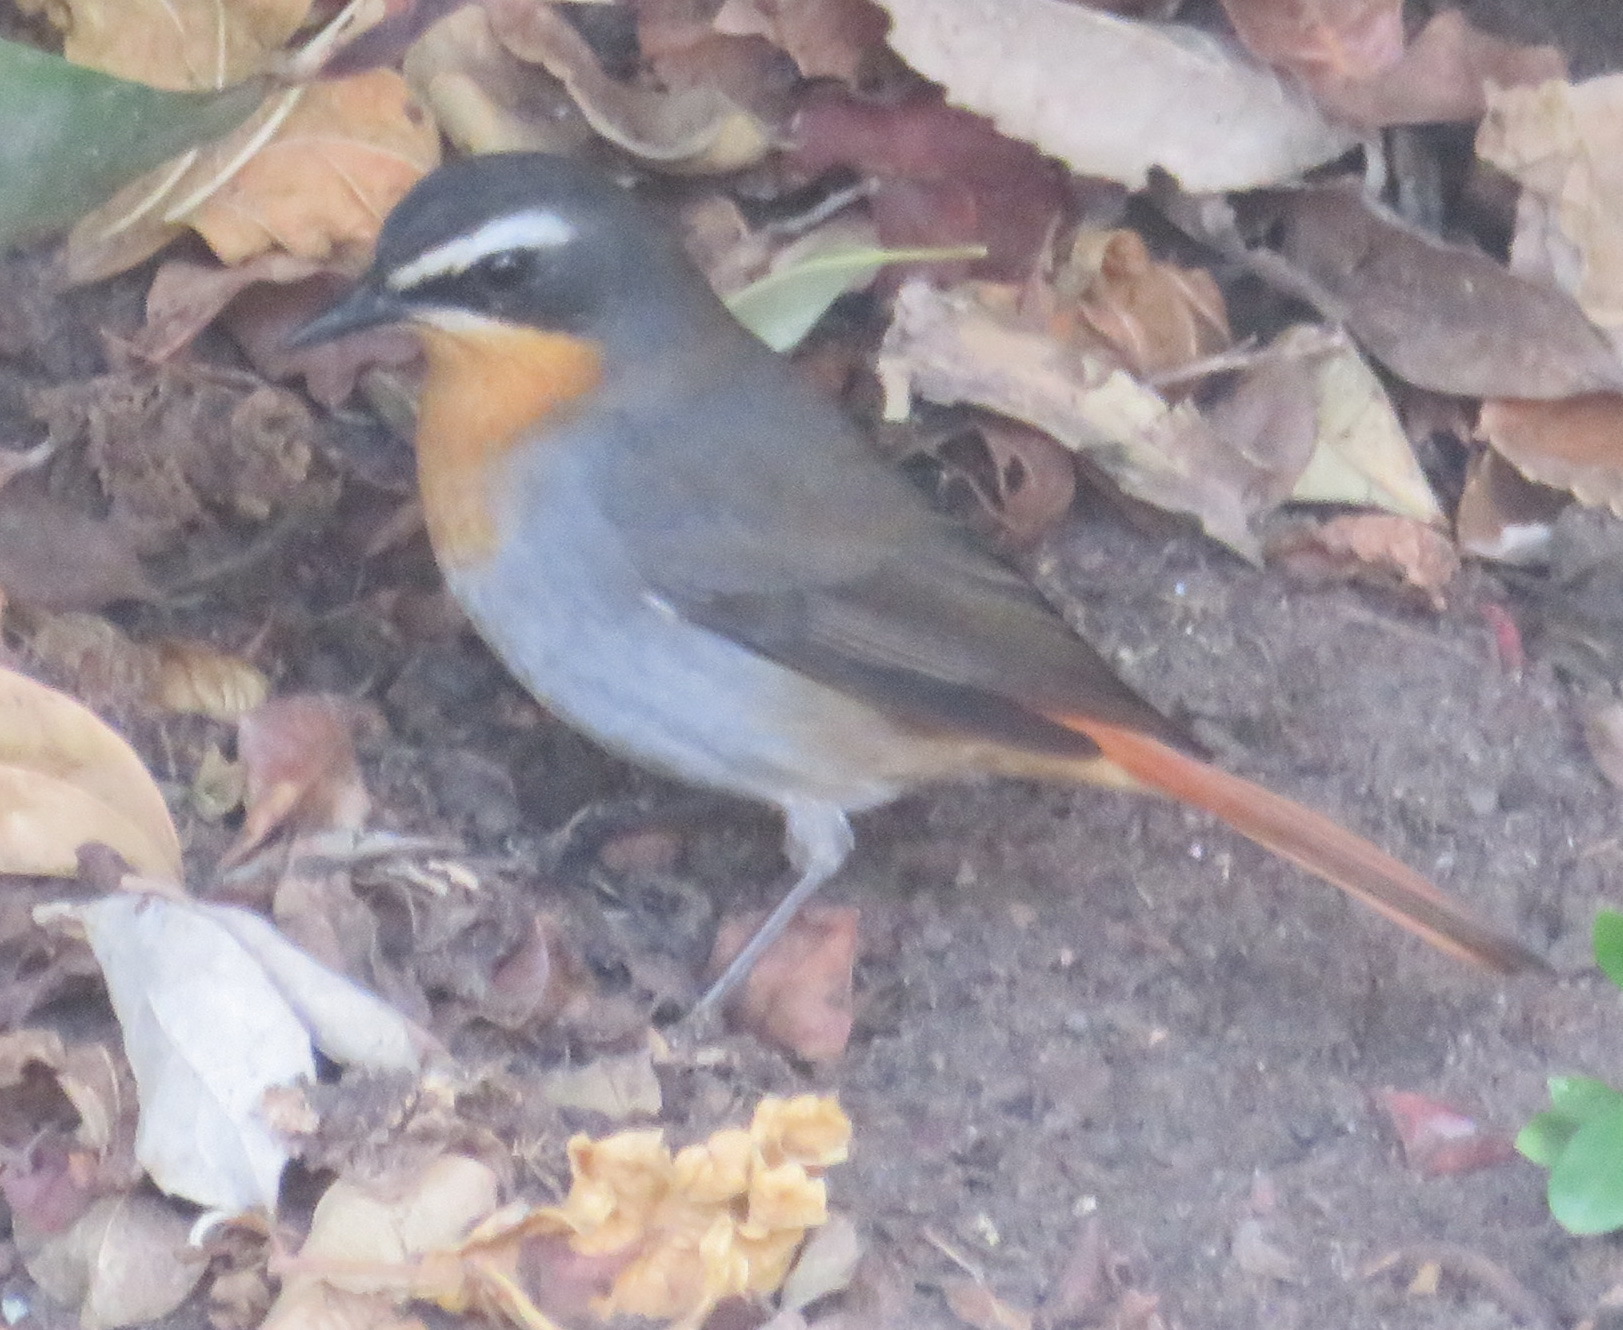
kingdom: Animalia
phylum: Chordata
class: Aves
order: Passeriformes
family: Muscicapidae
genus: Cossypha
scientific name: Cossypha caffra
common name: Cape robin-chat
